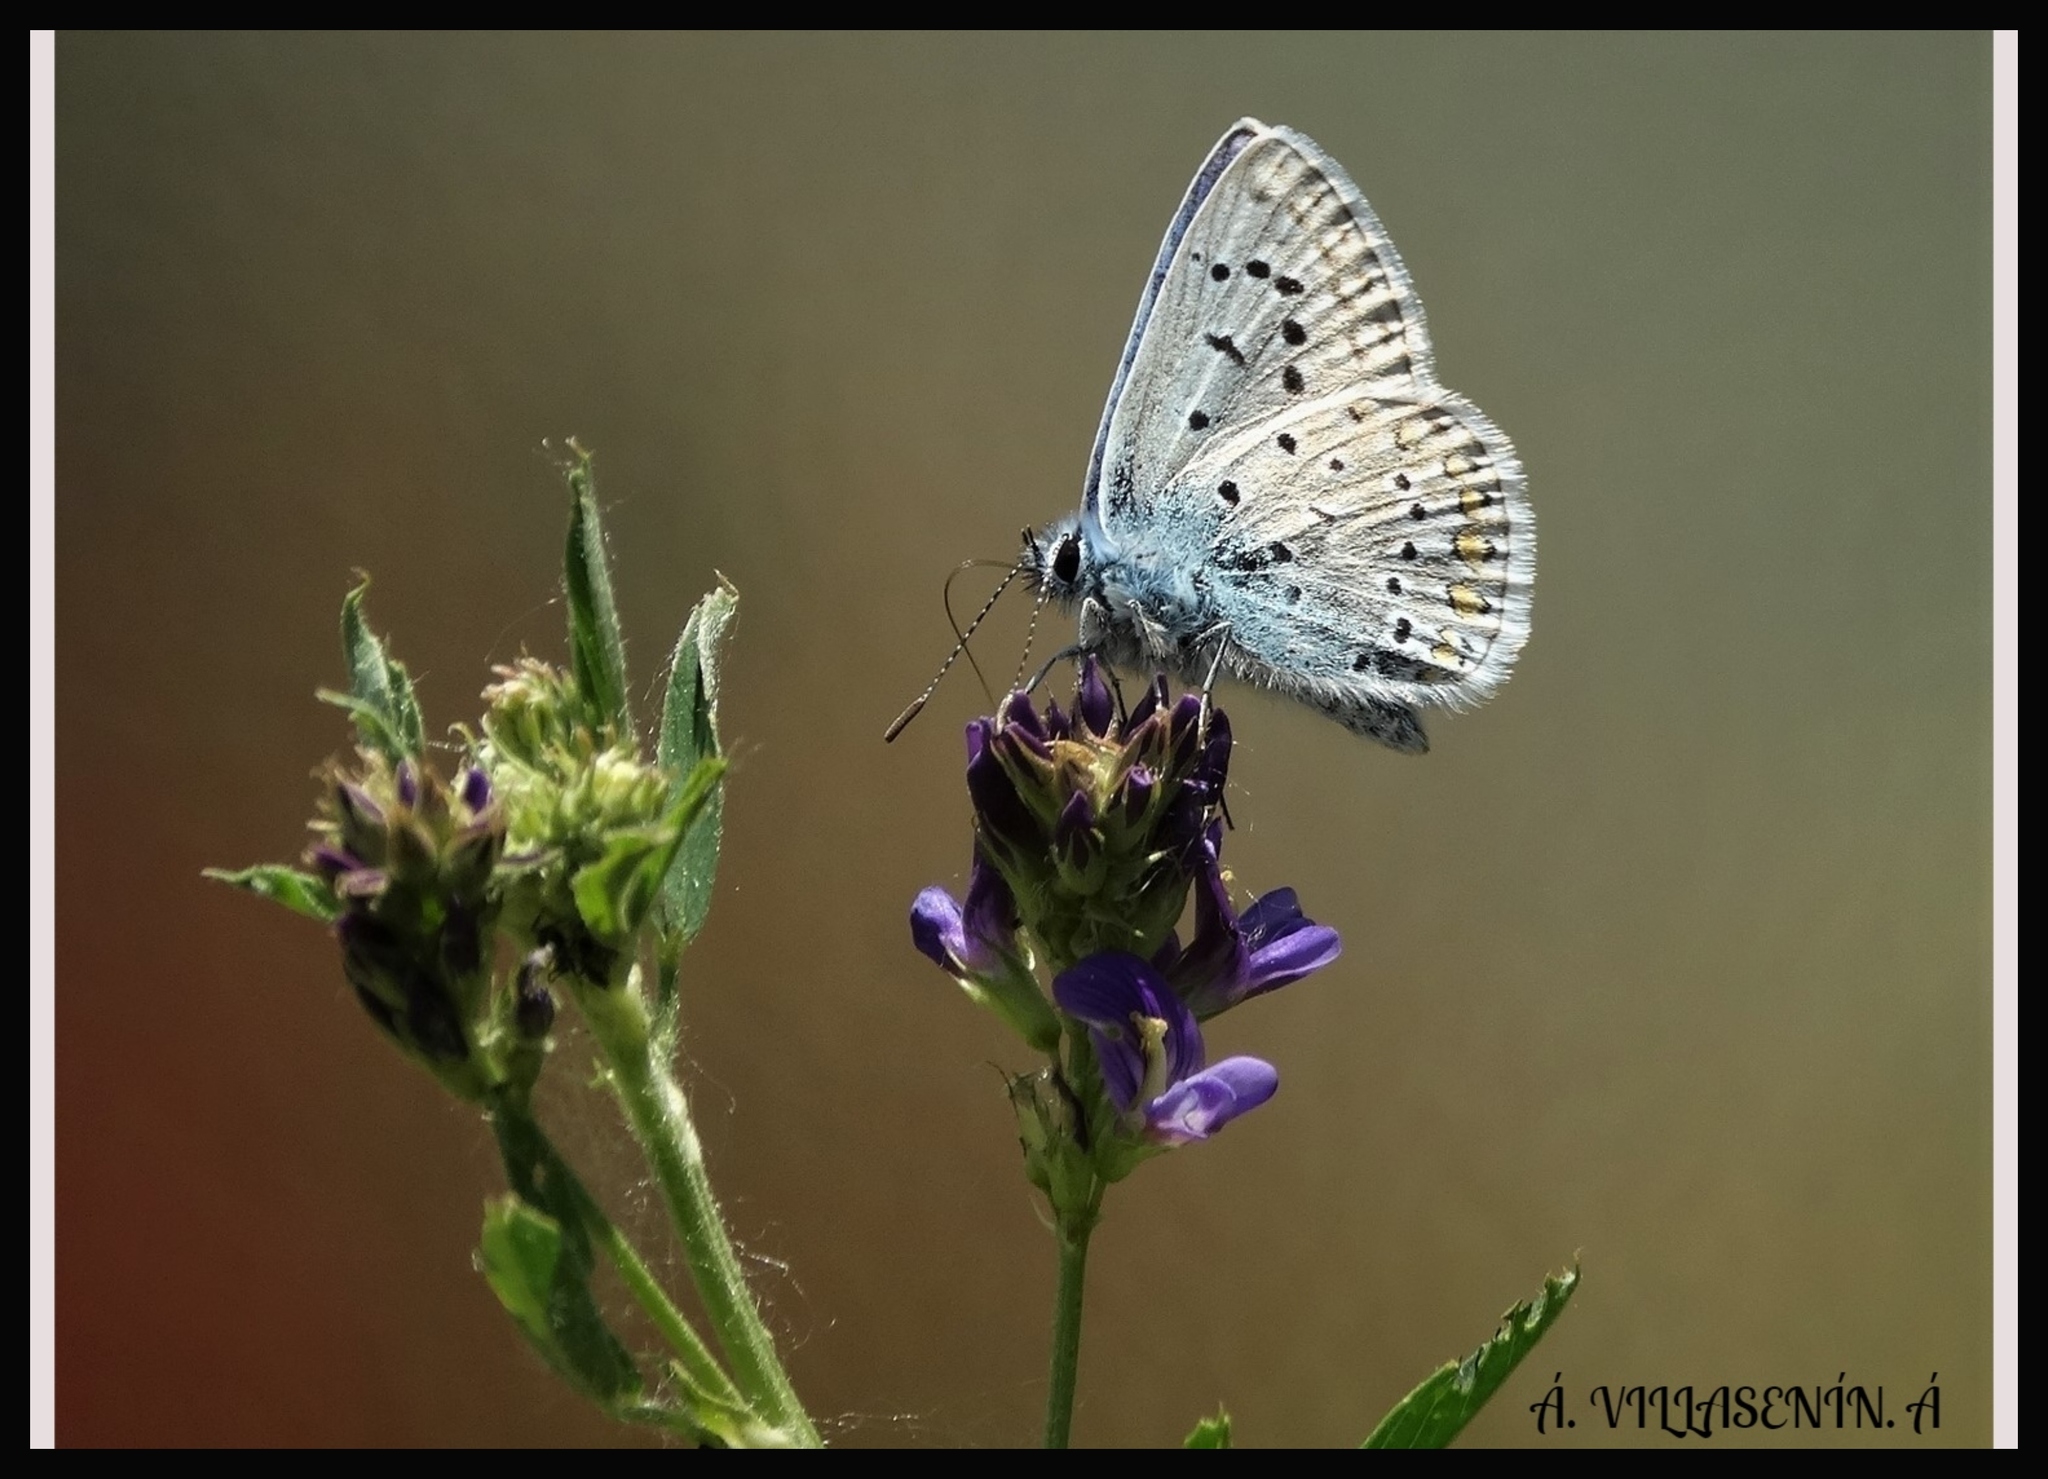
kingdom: Animalia
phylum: Arthropoda
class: Insecta
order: Lepidoptera
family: Lycaenidae
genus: Polyommatus
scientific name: Polyommatus icarus
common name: Common blue
